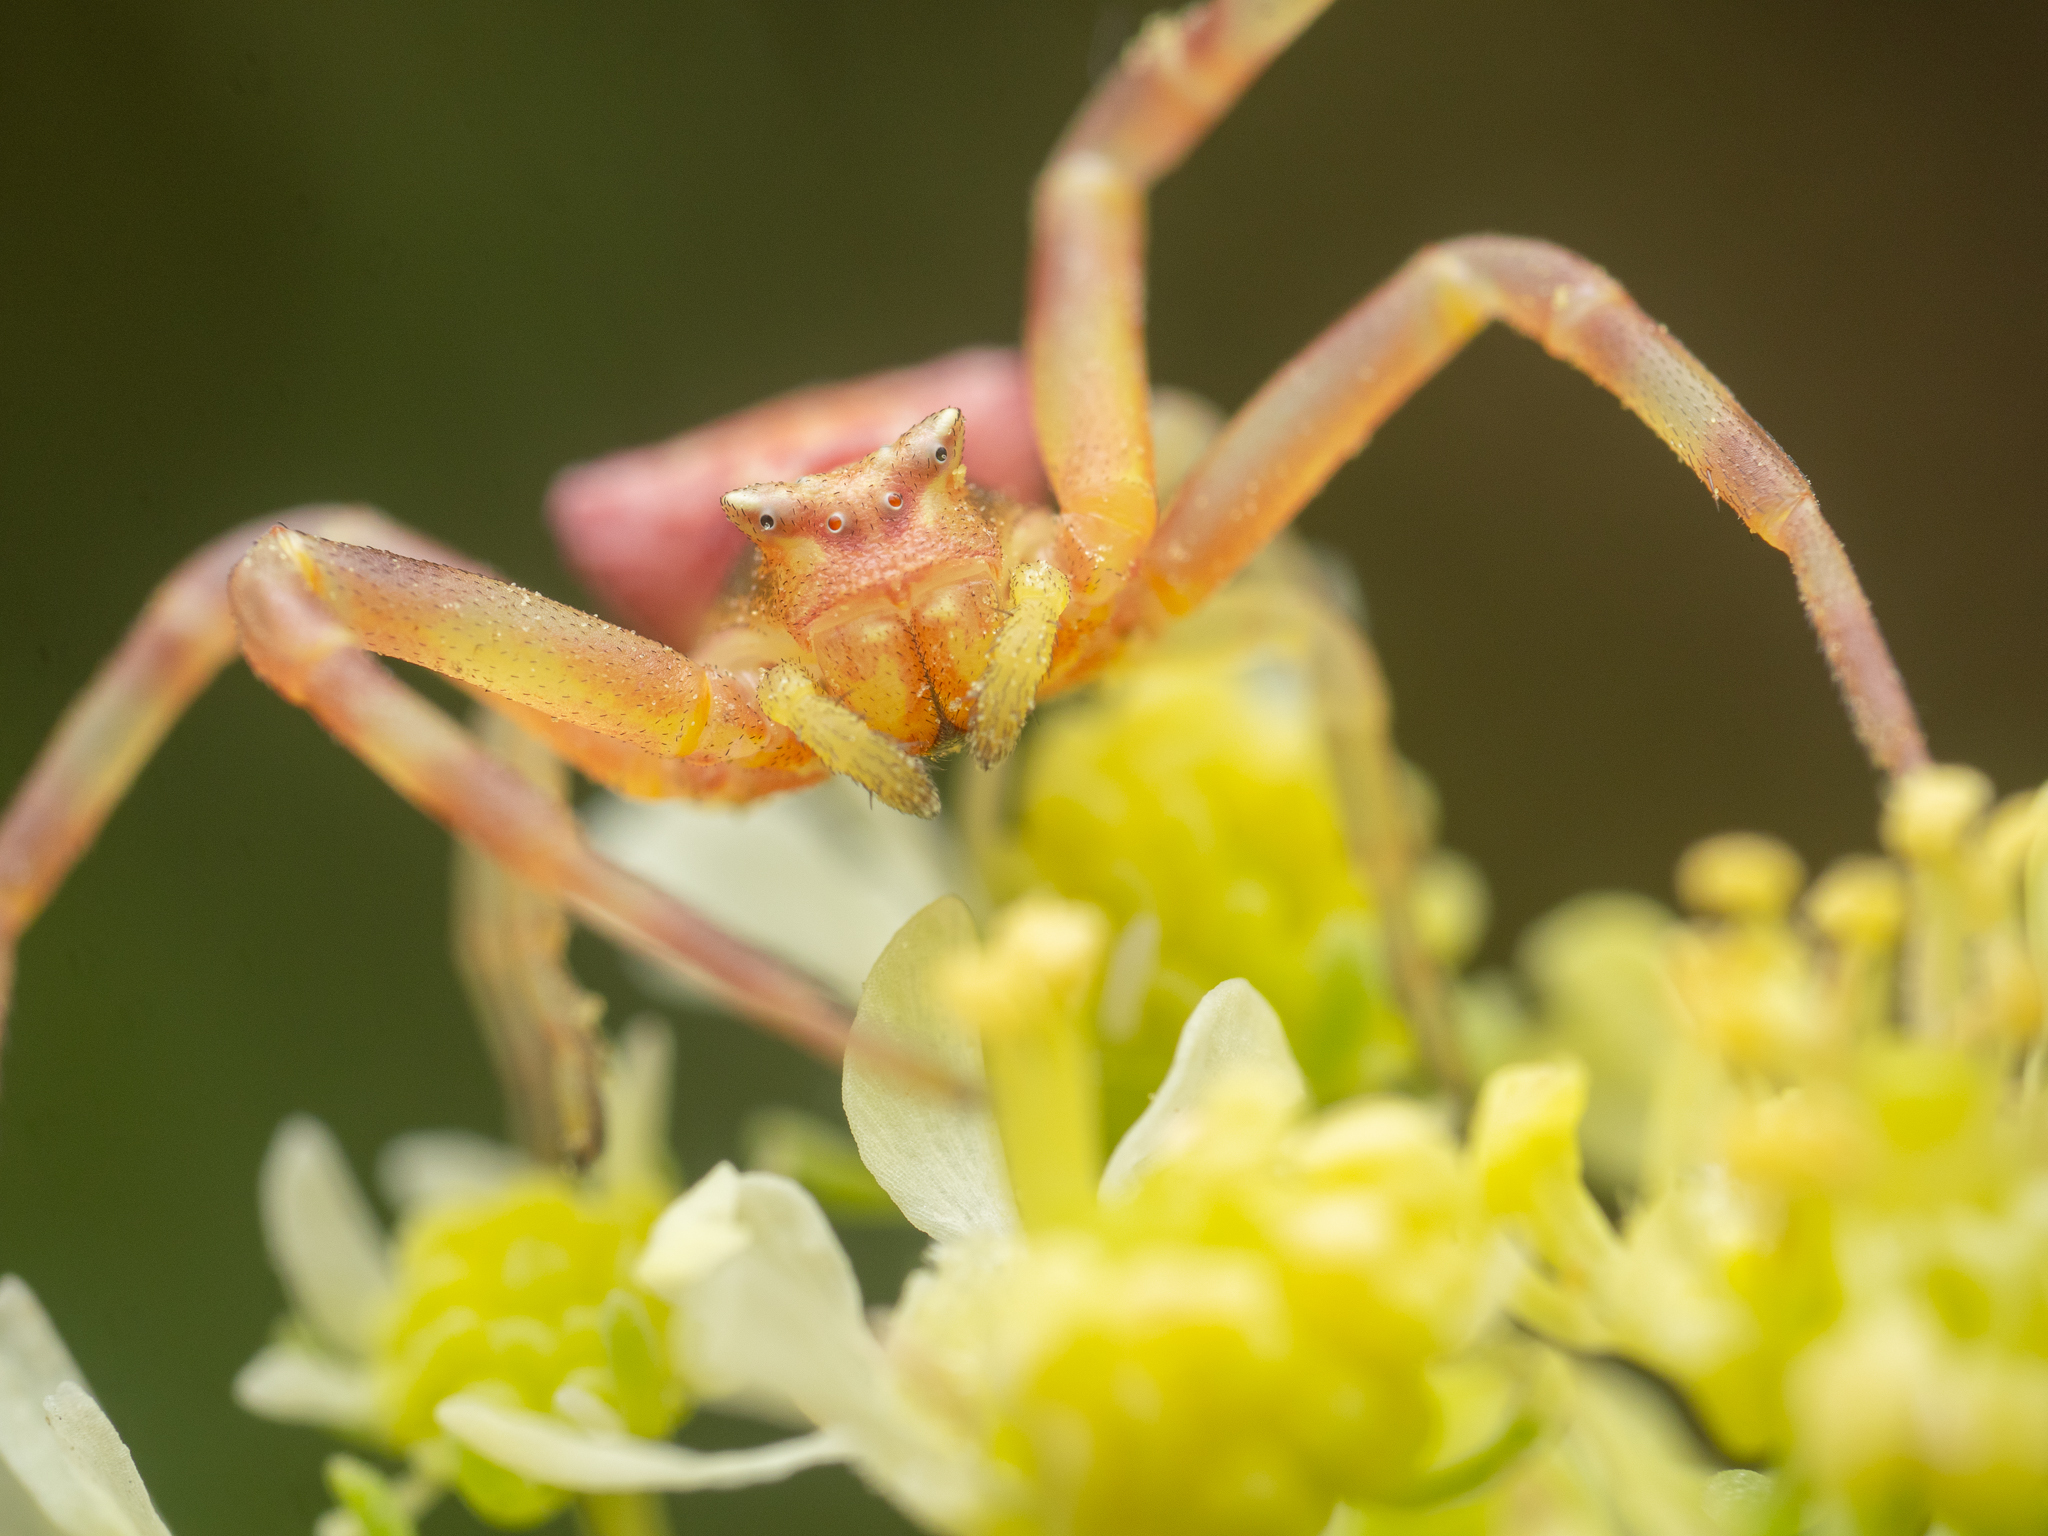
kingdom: Animalia
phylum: Arthropoda
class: Arachnida
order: Araneae
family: Thomisidae
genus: Thomisus
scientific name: Thomisus onustus
